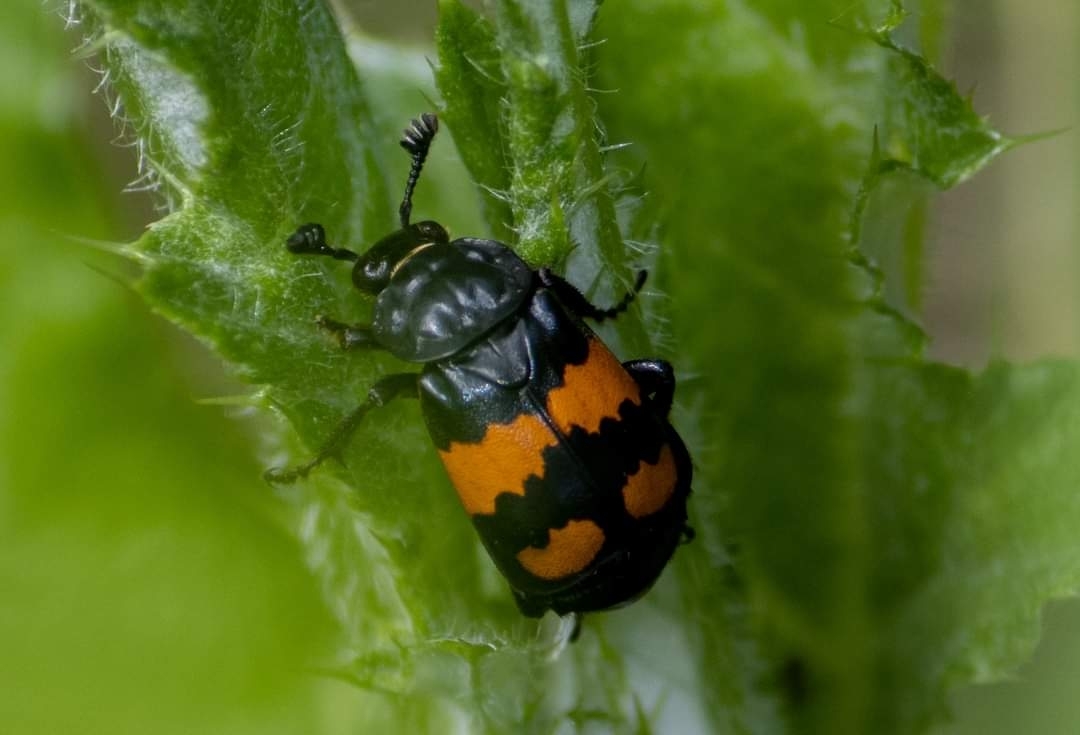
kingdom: Animalia
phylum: Arthropoda
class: Insecta
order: Coleoptera
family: Staphylinidae
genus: Nicrophorus
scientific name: Nicrophorus vespilloides
